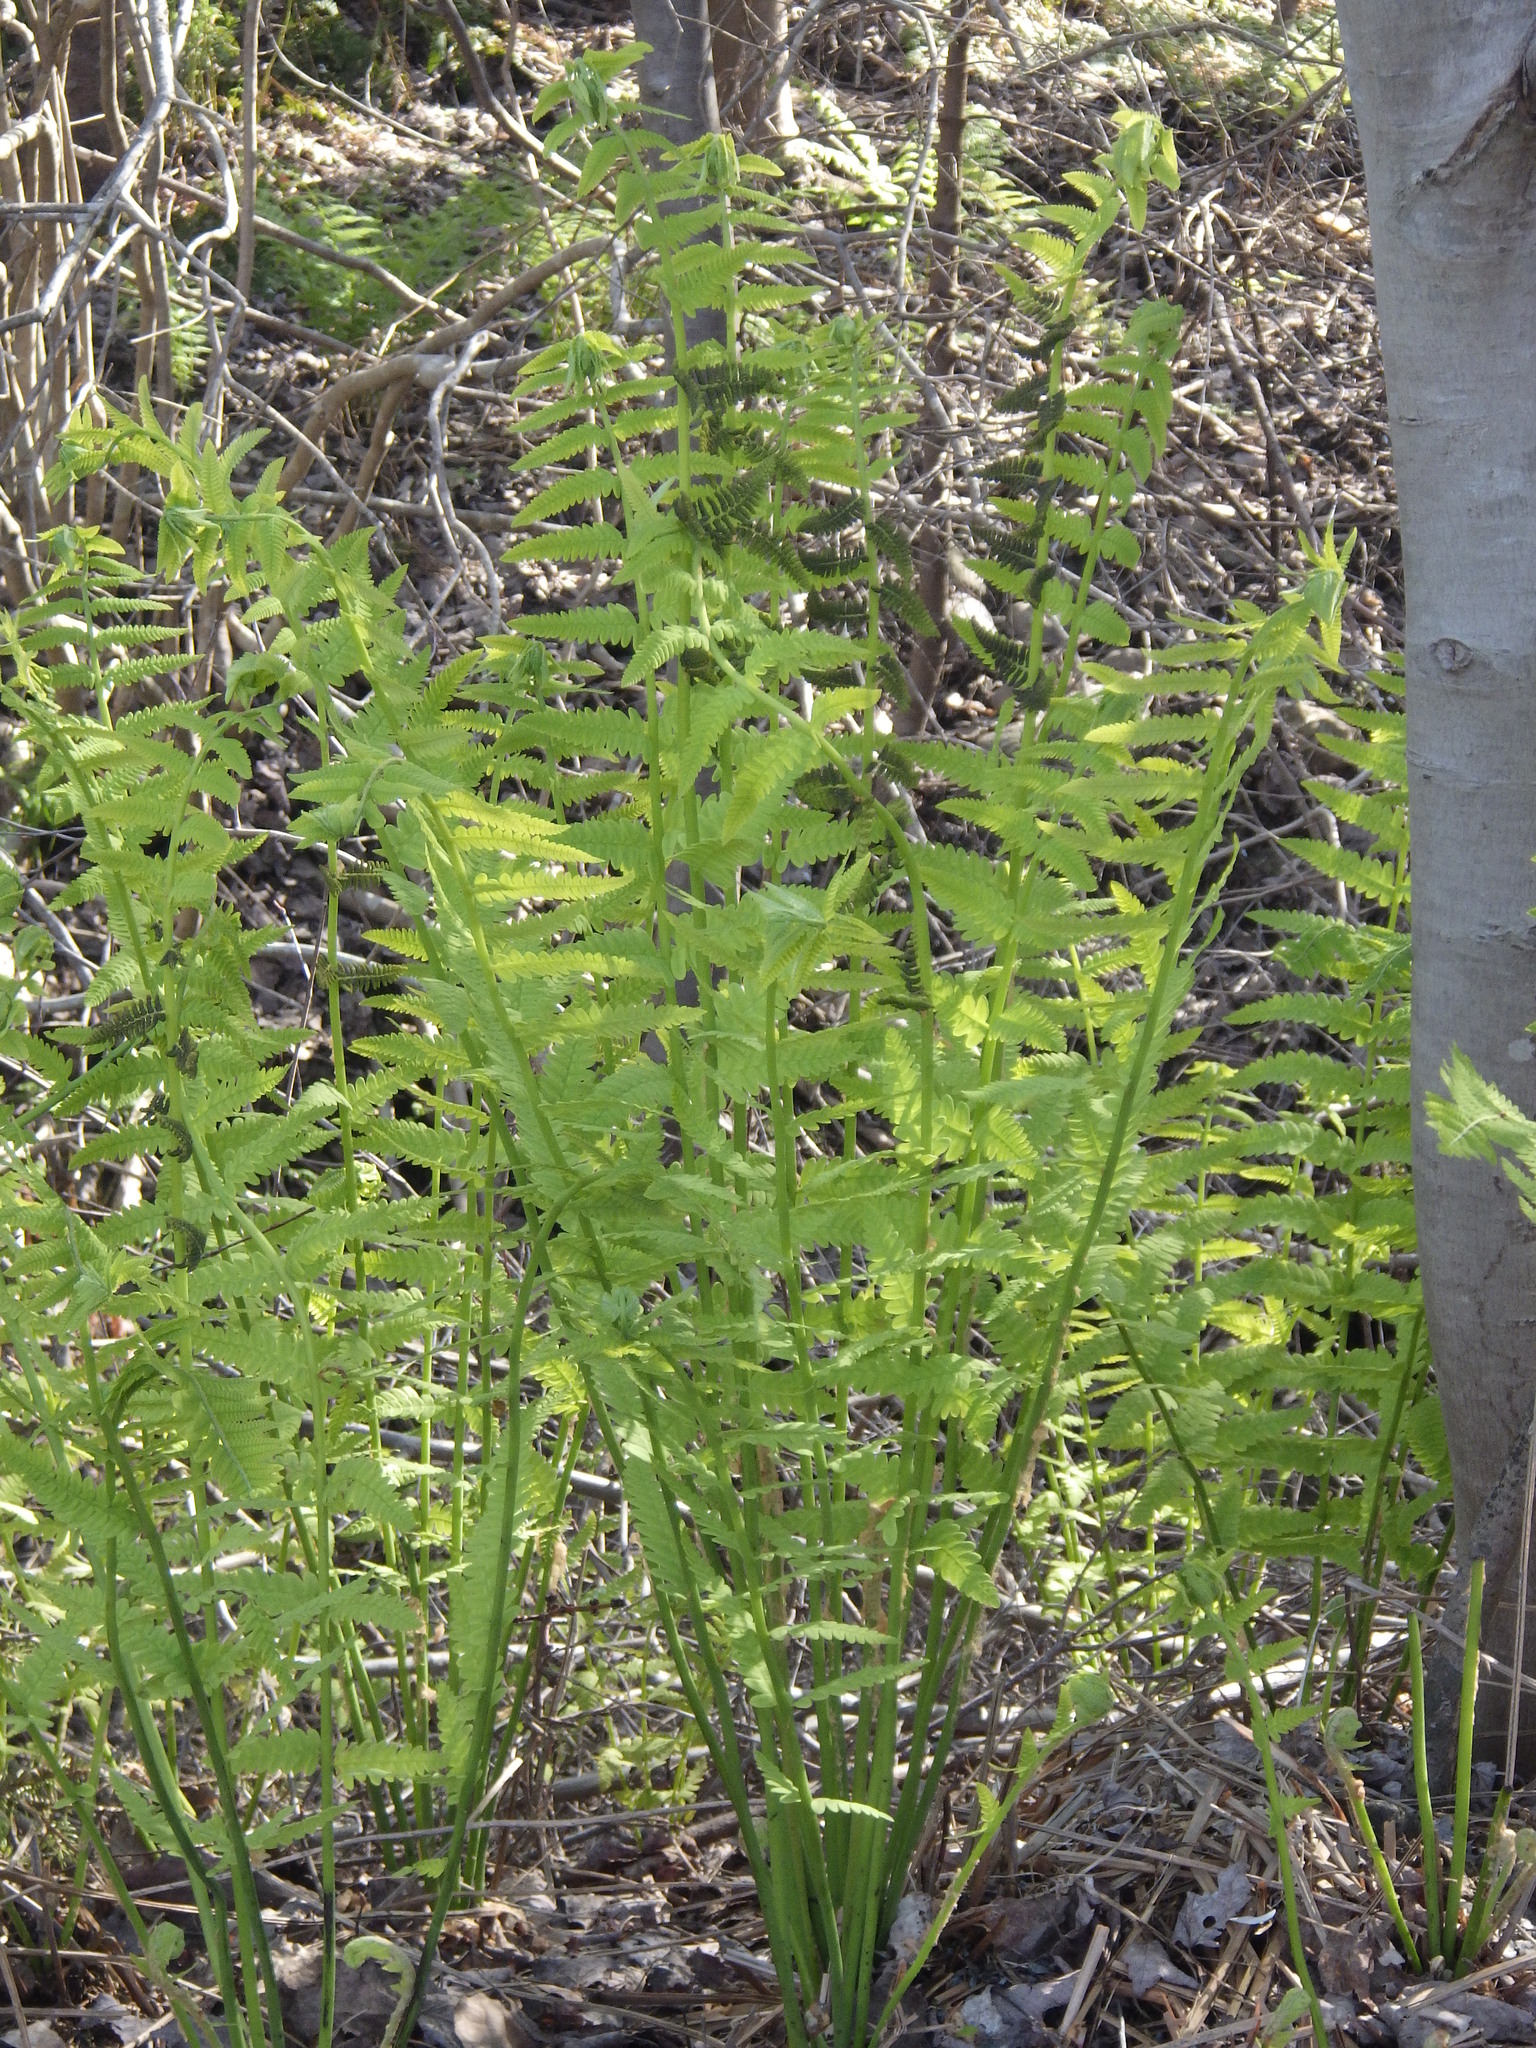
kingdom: Plantae
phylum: Tracheophyta
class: Polypodiopsida
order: Osmundales
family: Osmundaceae
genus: Claytosmunda
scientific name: Claytosmunda claytoniana
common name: Clayton's fern
